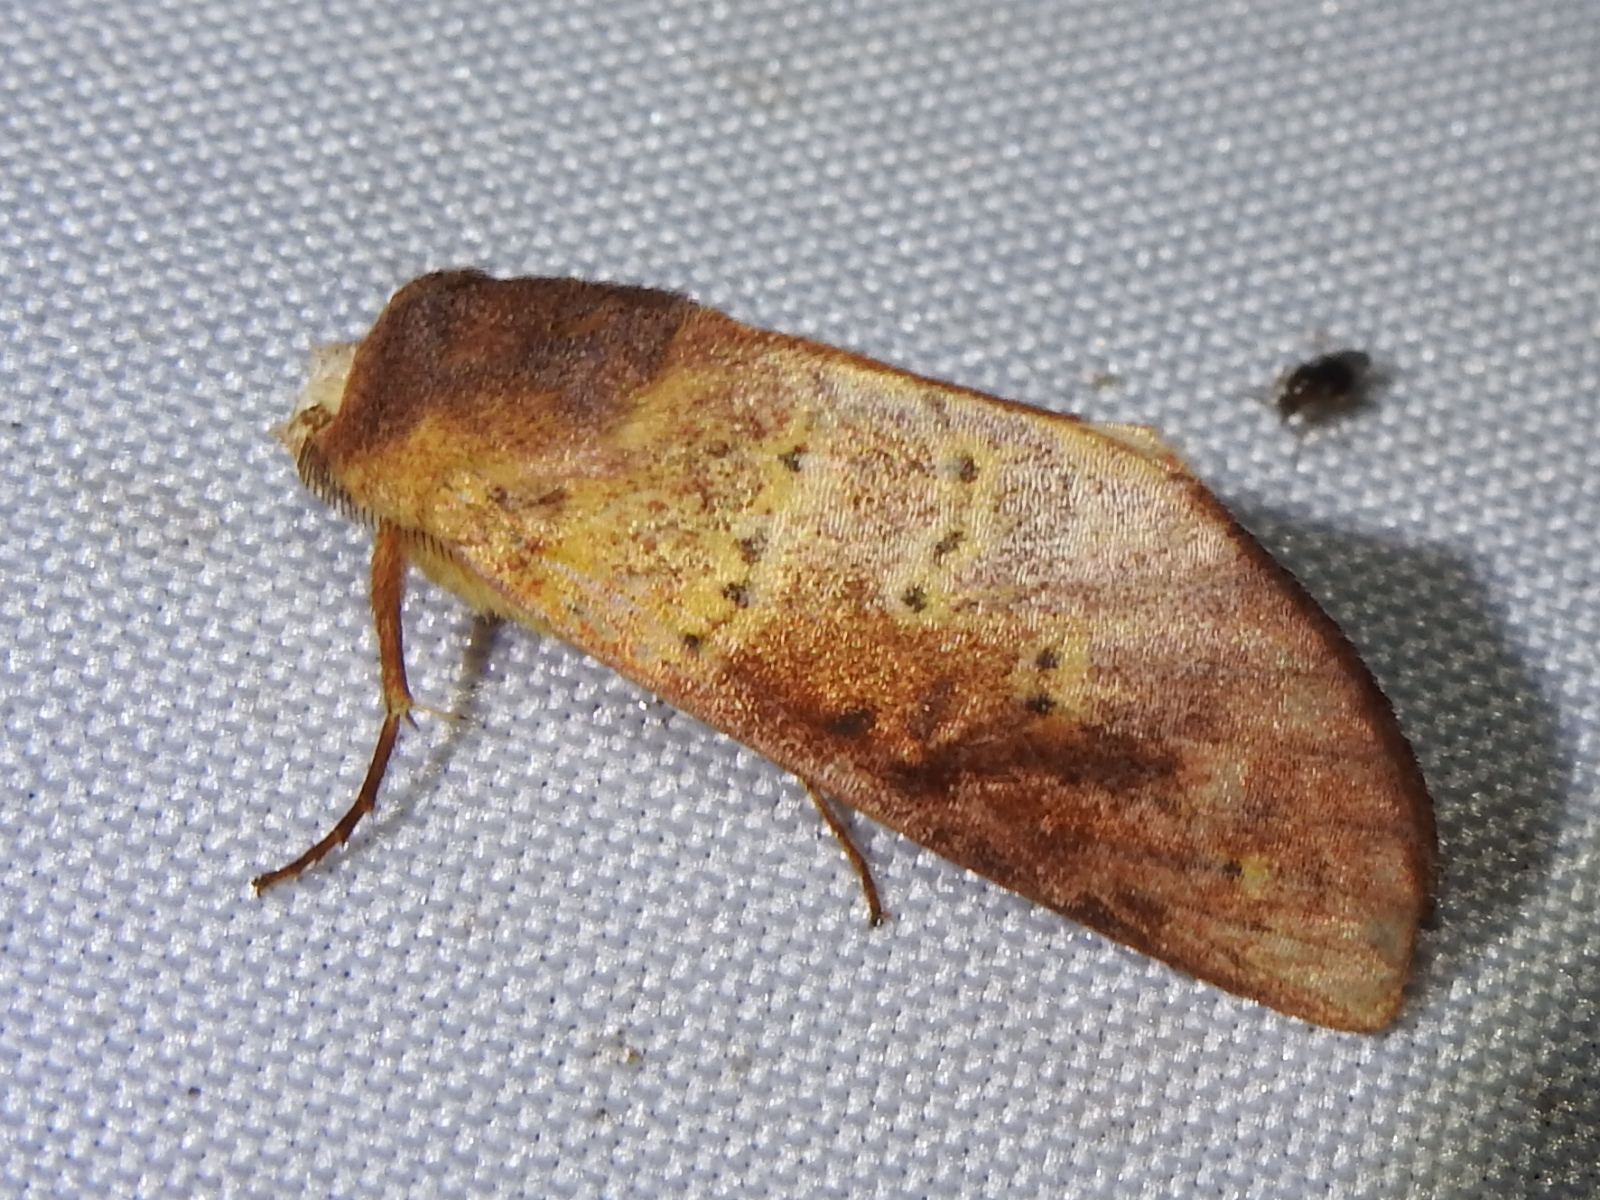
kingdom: Animalia
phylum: Arthropoda
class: Insecta
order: Lepidoptera
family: Notodontidae
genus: Hemiceras
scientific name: Hemiceras punctata
